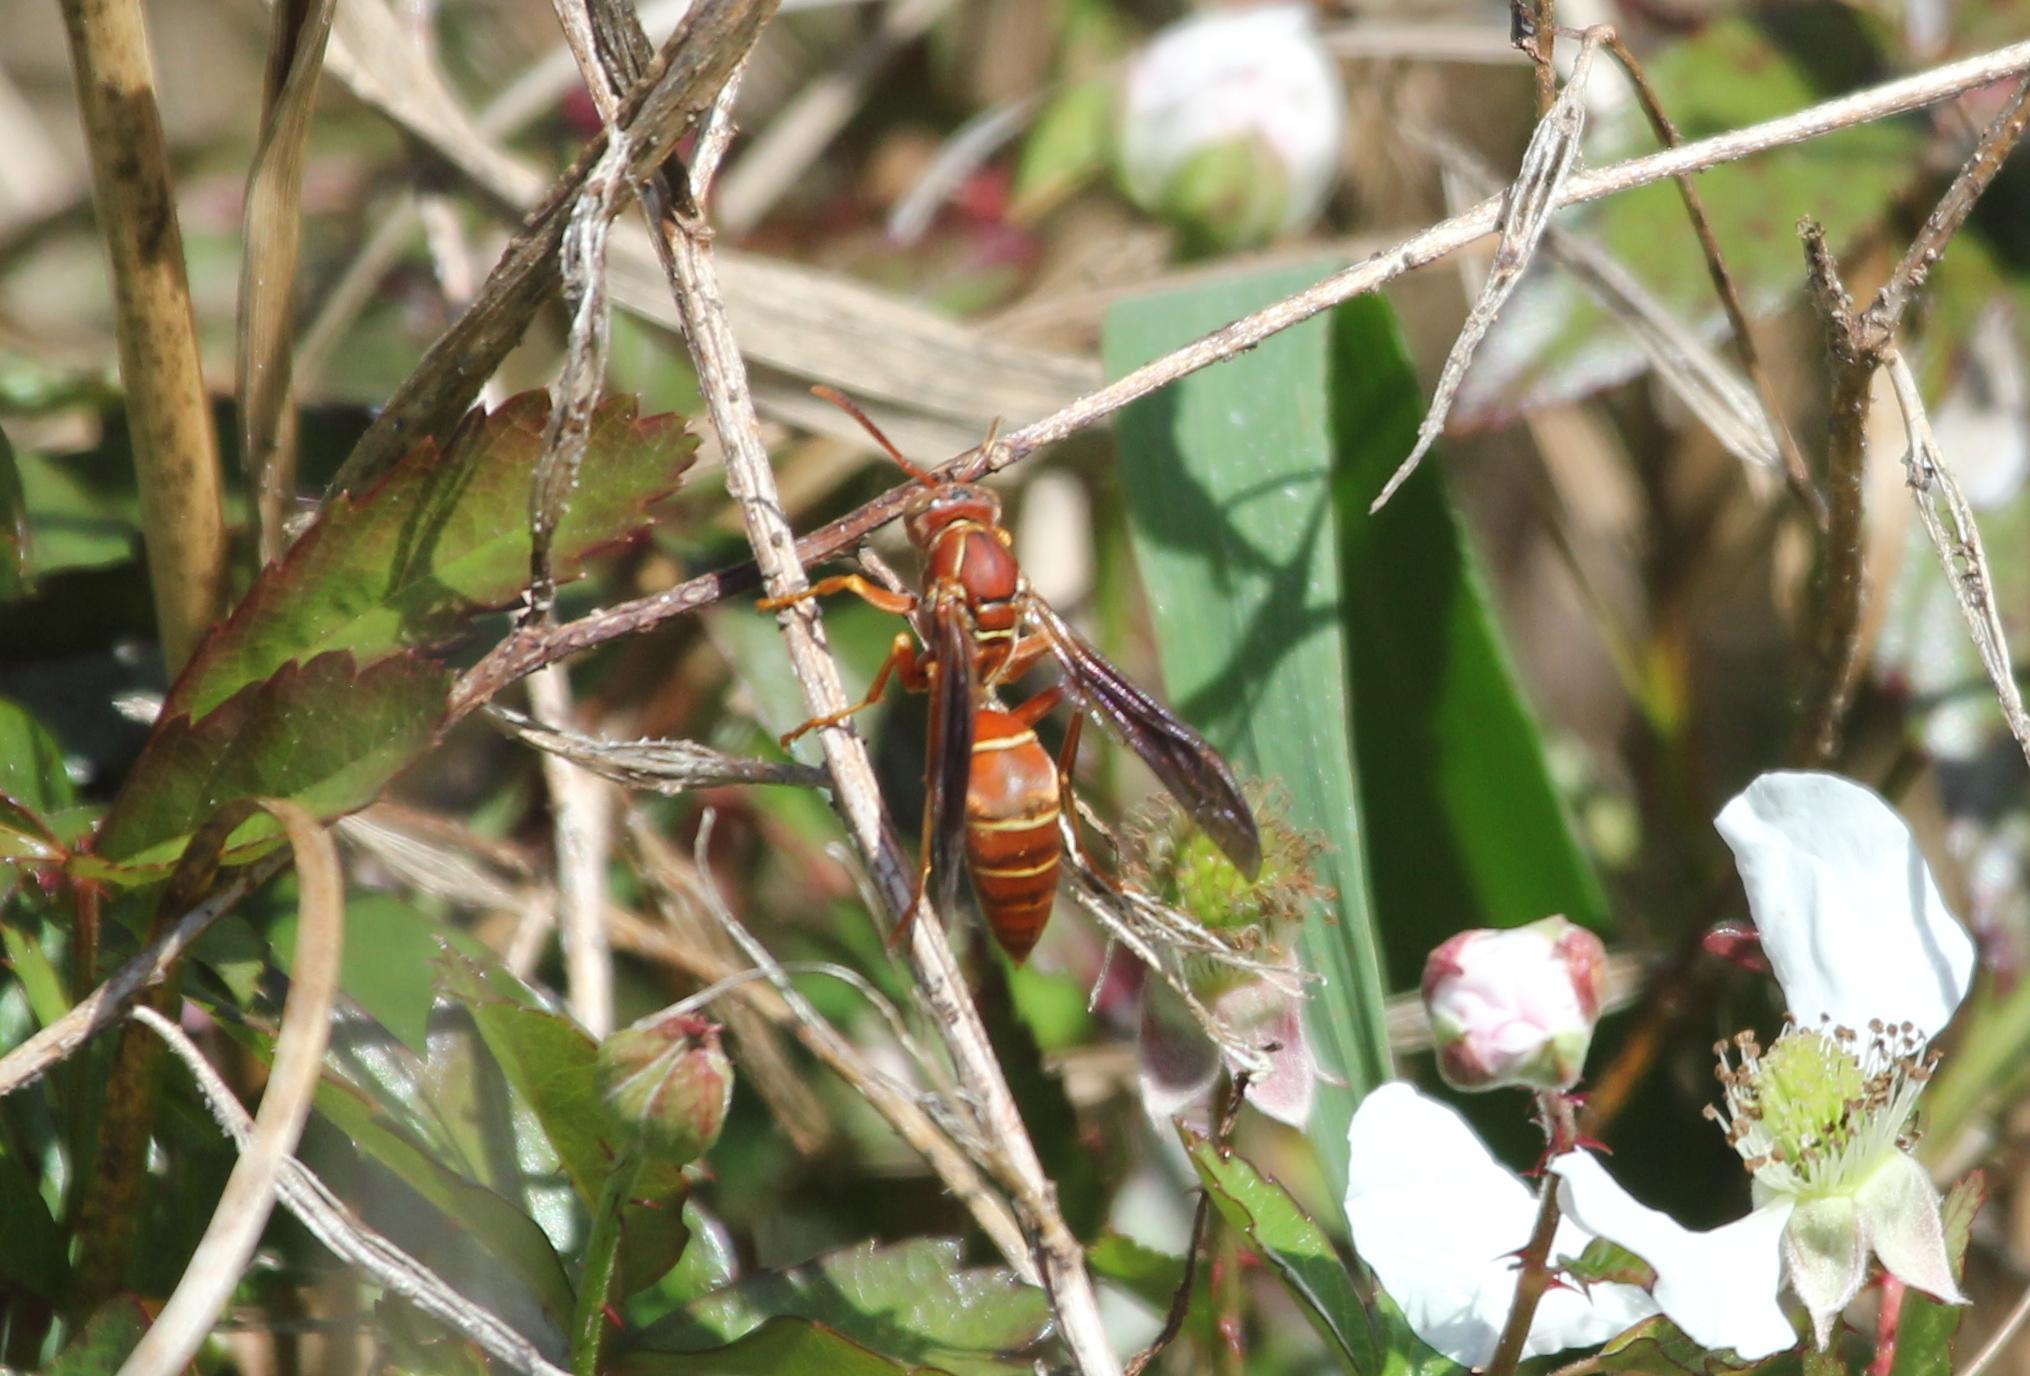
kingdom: Animalia
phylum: Arthropoda
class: Insecta
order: Hymenoptera
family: Eumenidae
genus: Polistes
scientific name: Polistes bellicosus
